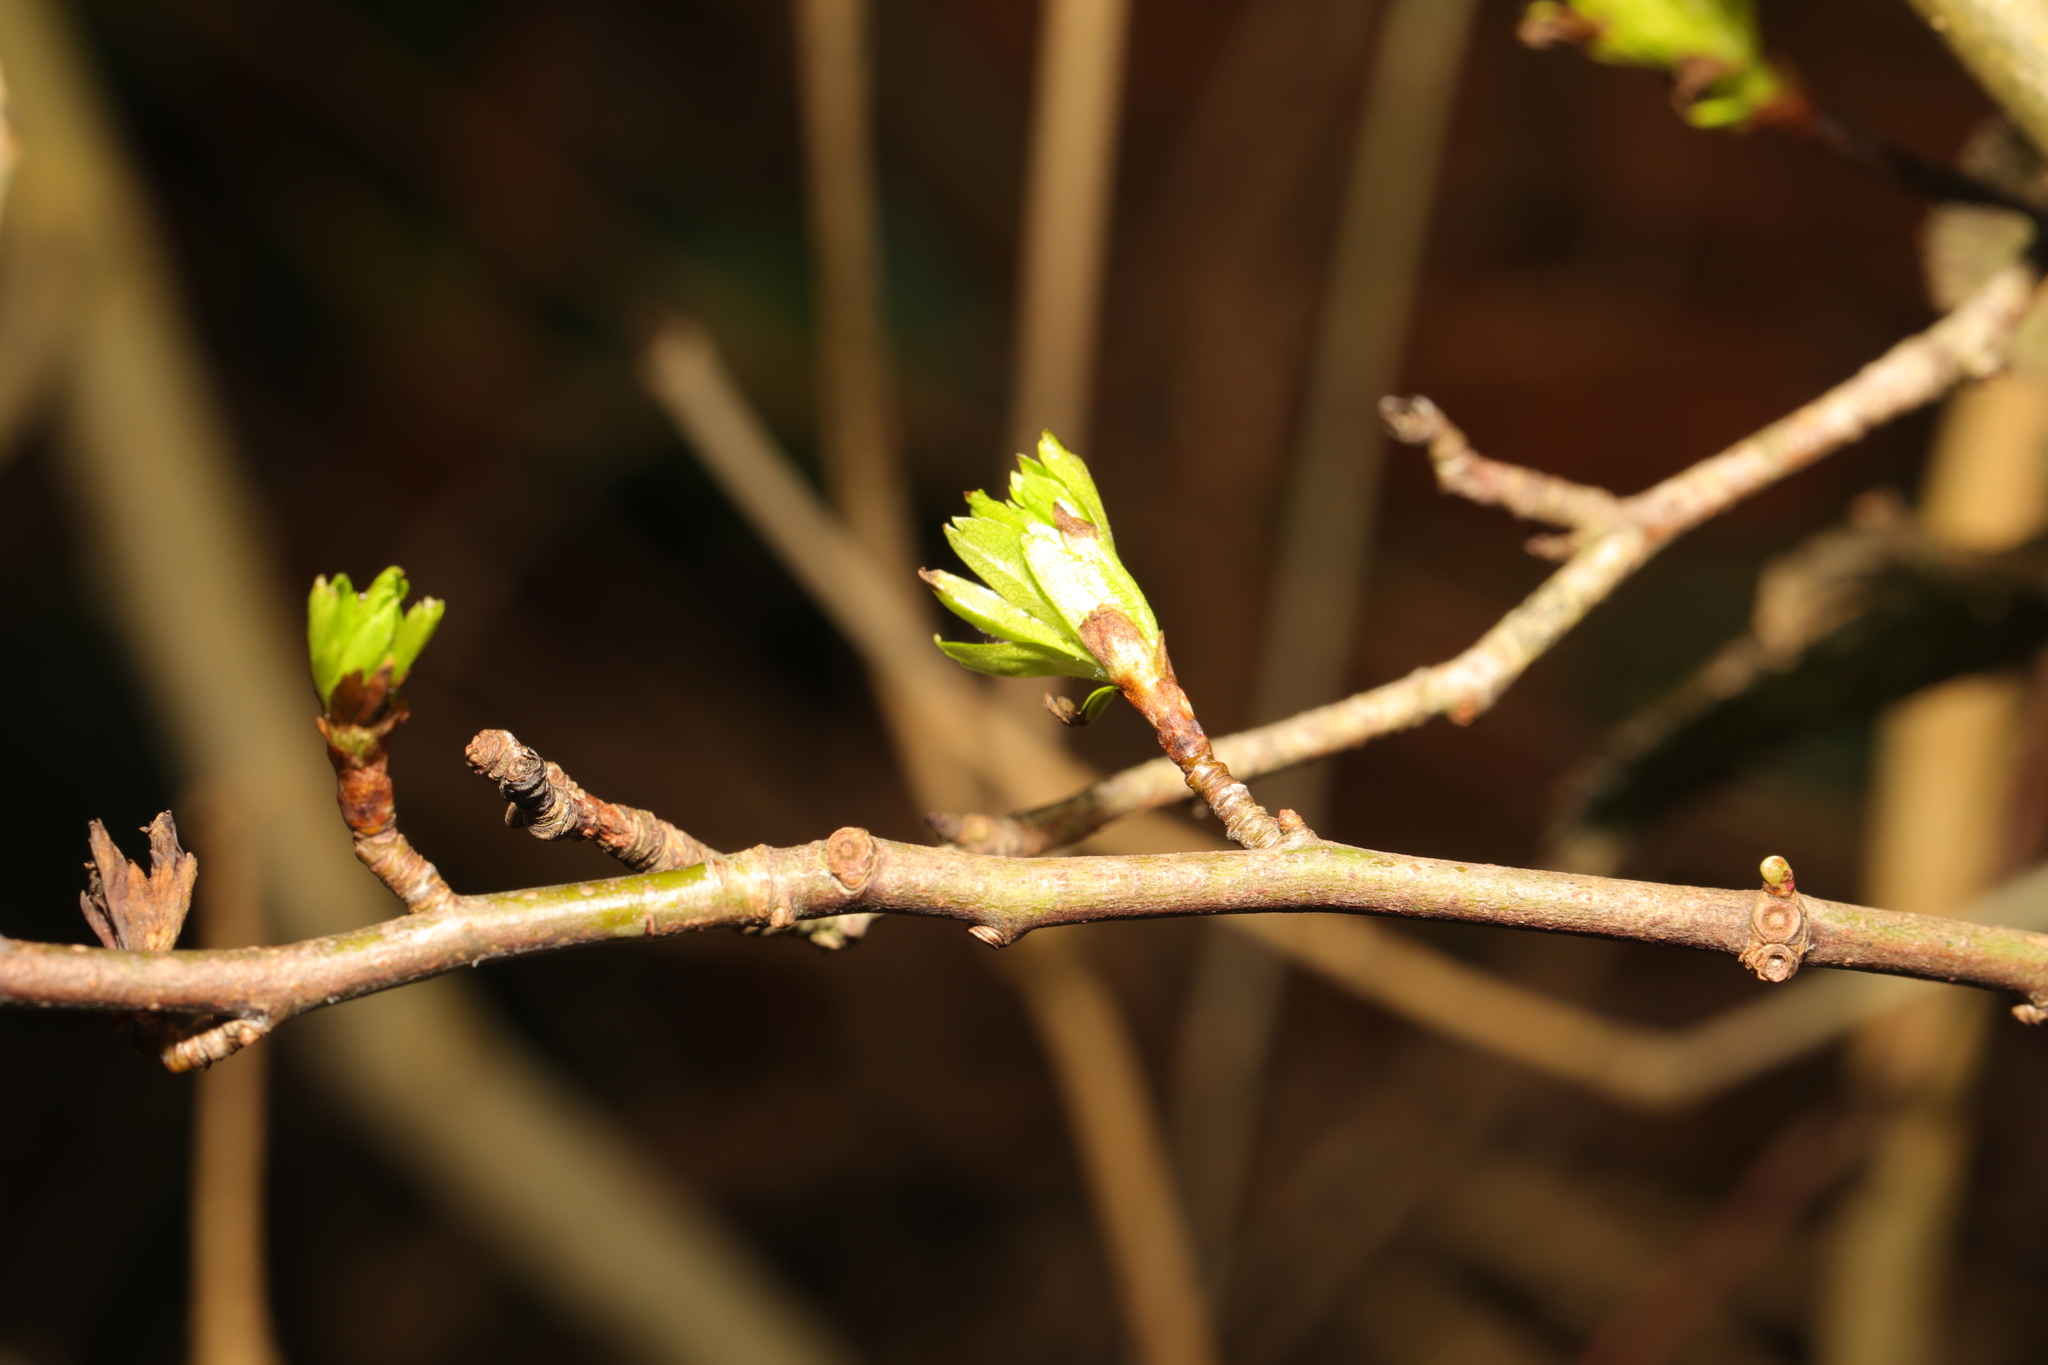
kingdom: Plantae
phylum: Tracheophyta
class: Magnoliopsida
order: Rosales
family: Rosaceae
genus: Crataegus
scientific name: Crataegus monogyna
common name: Hawthorn
